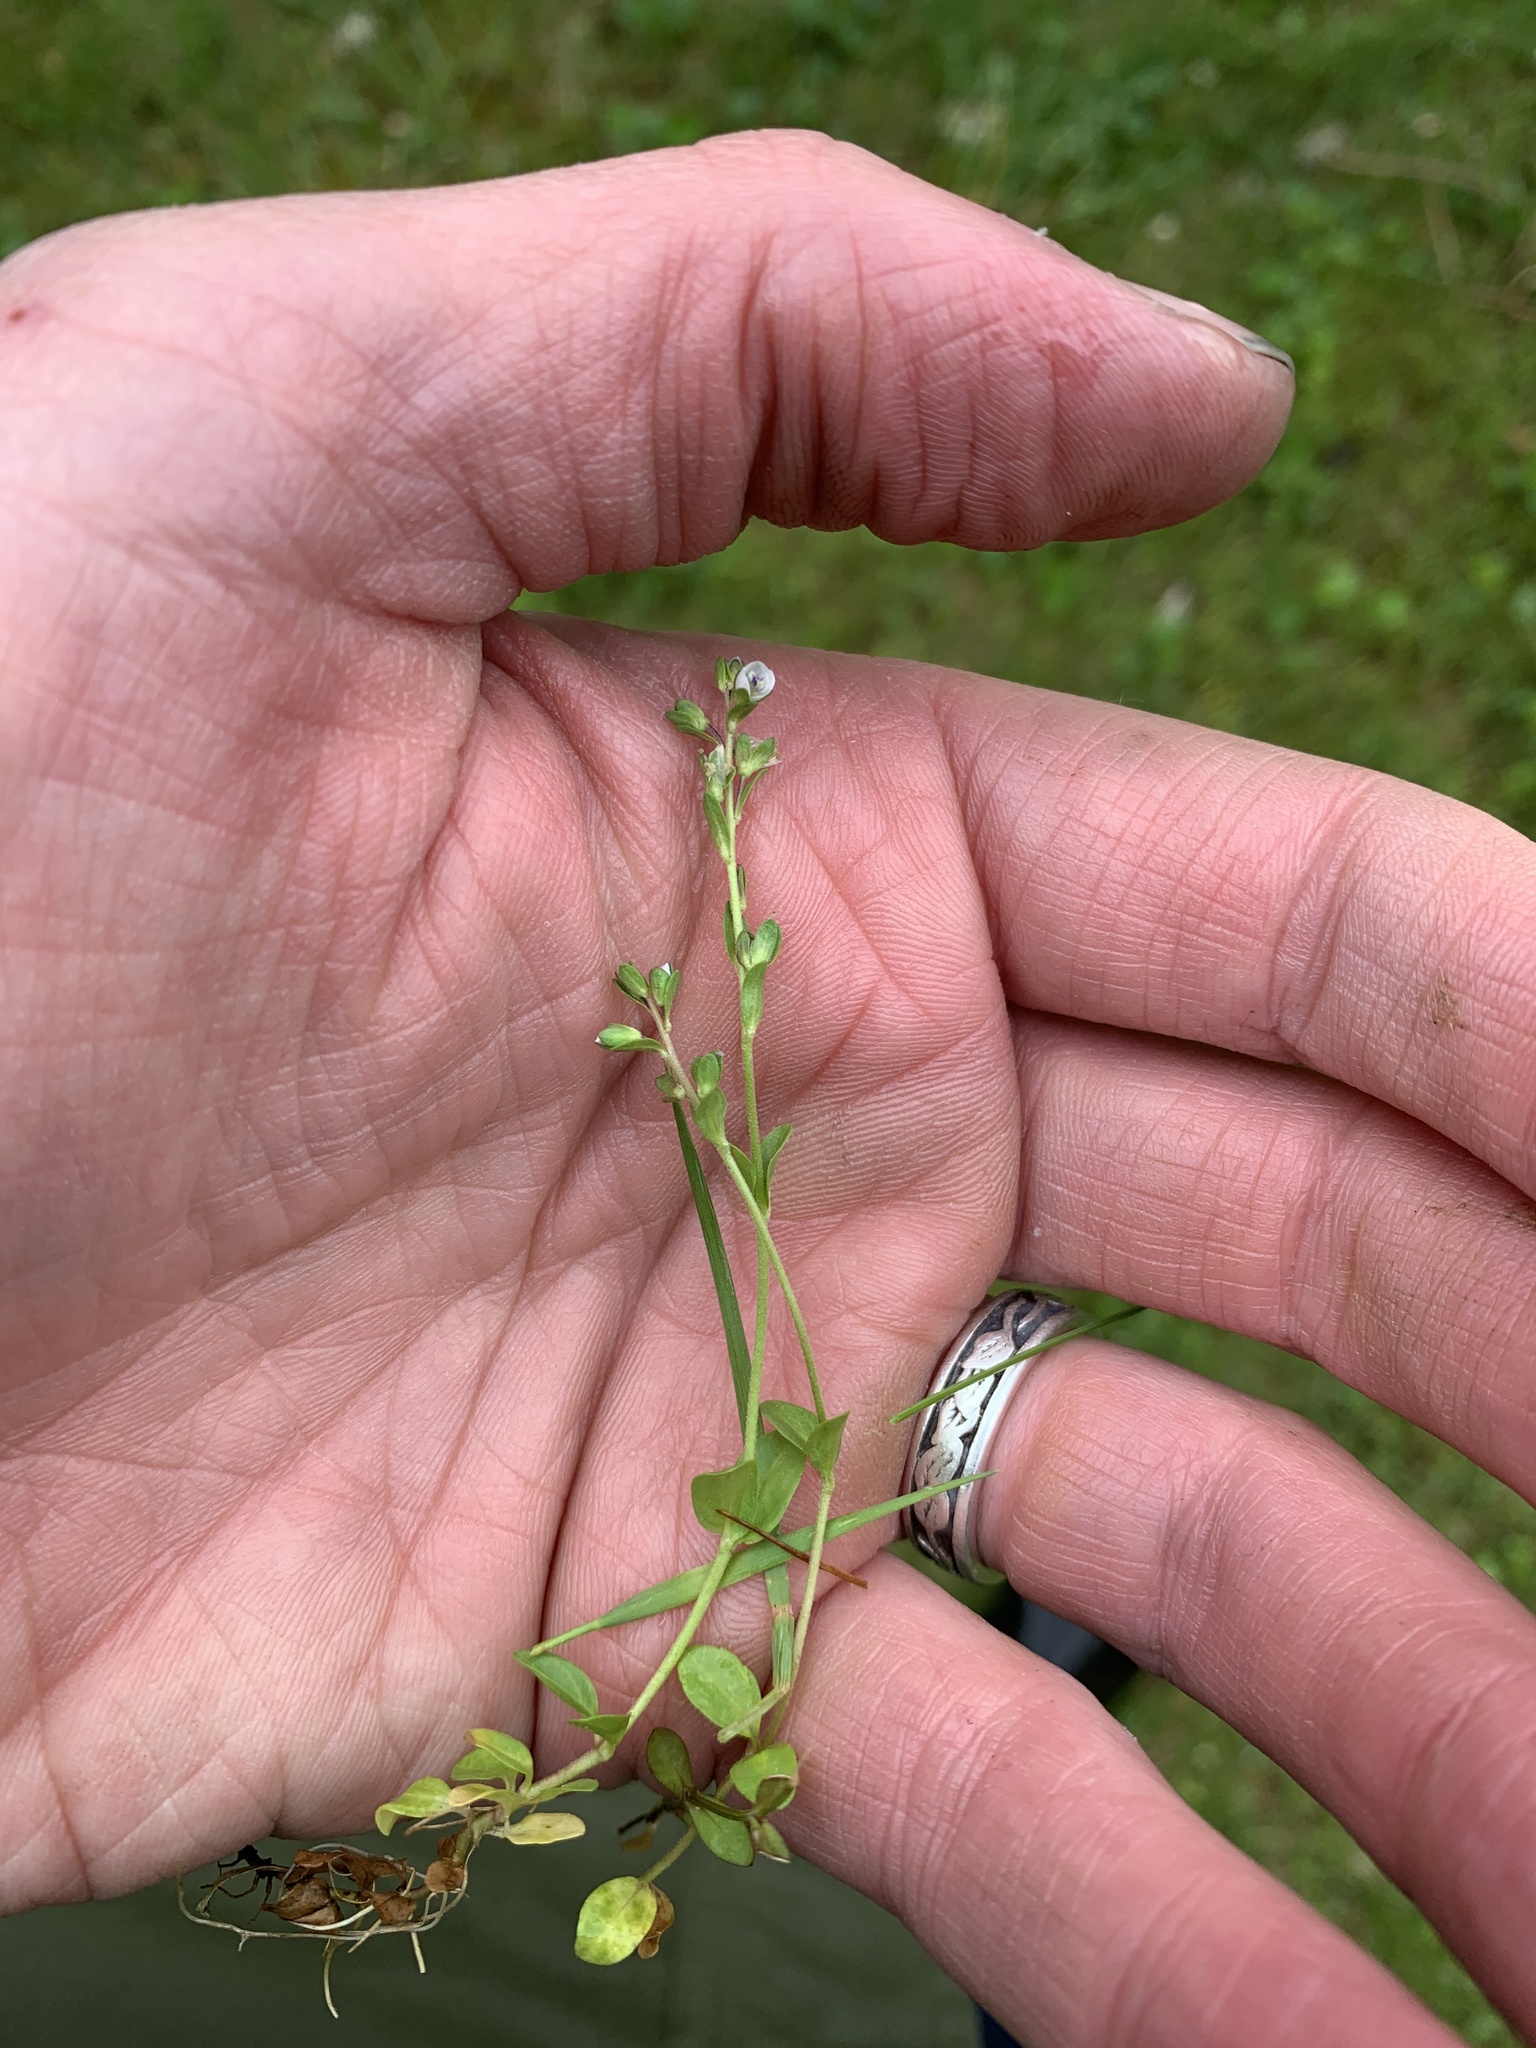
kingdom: Plantae
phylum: Tracheophyta
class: Magnoliopsida
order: Lamiales
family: Plantaginaceae
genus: Veronica
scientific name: Veronica serpyllifolia
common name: Thyme-leaved speedwell
